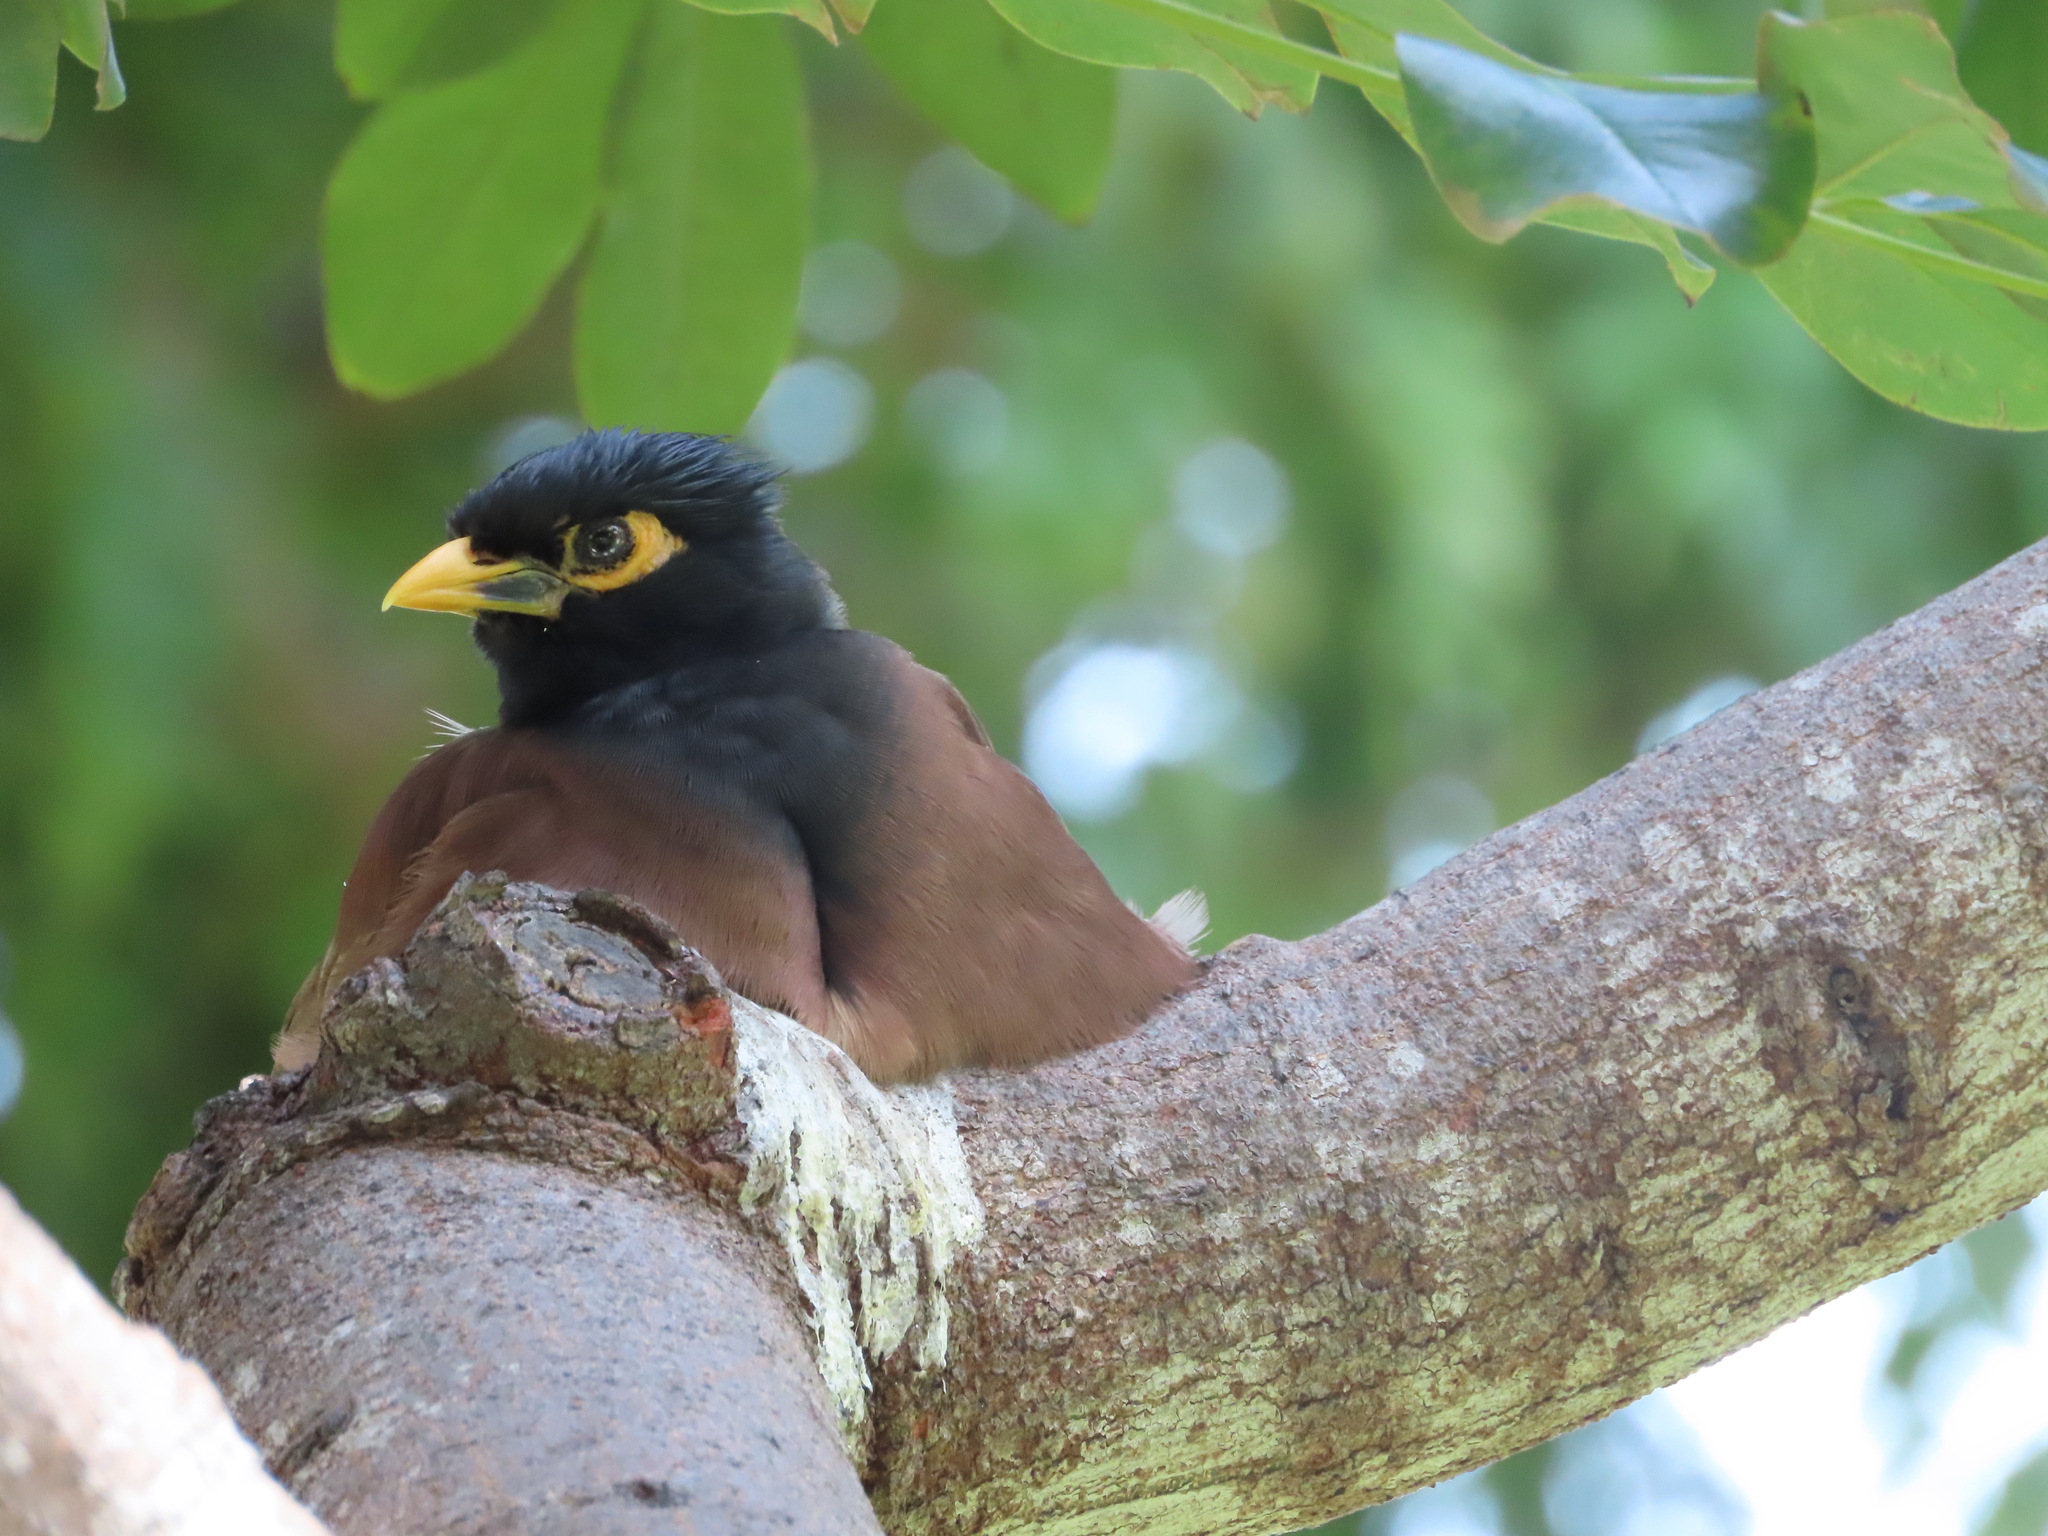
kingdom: Animalia
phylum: Chordata
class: Aves
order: Passeriformes
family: Sturnidae
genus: Acridotheres
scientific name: Acridotheres tristis
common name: Common myna
